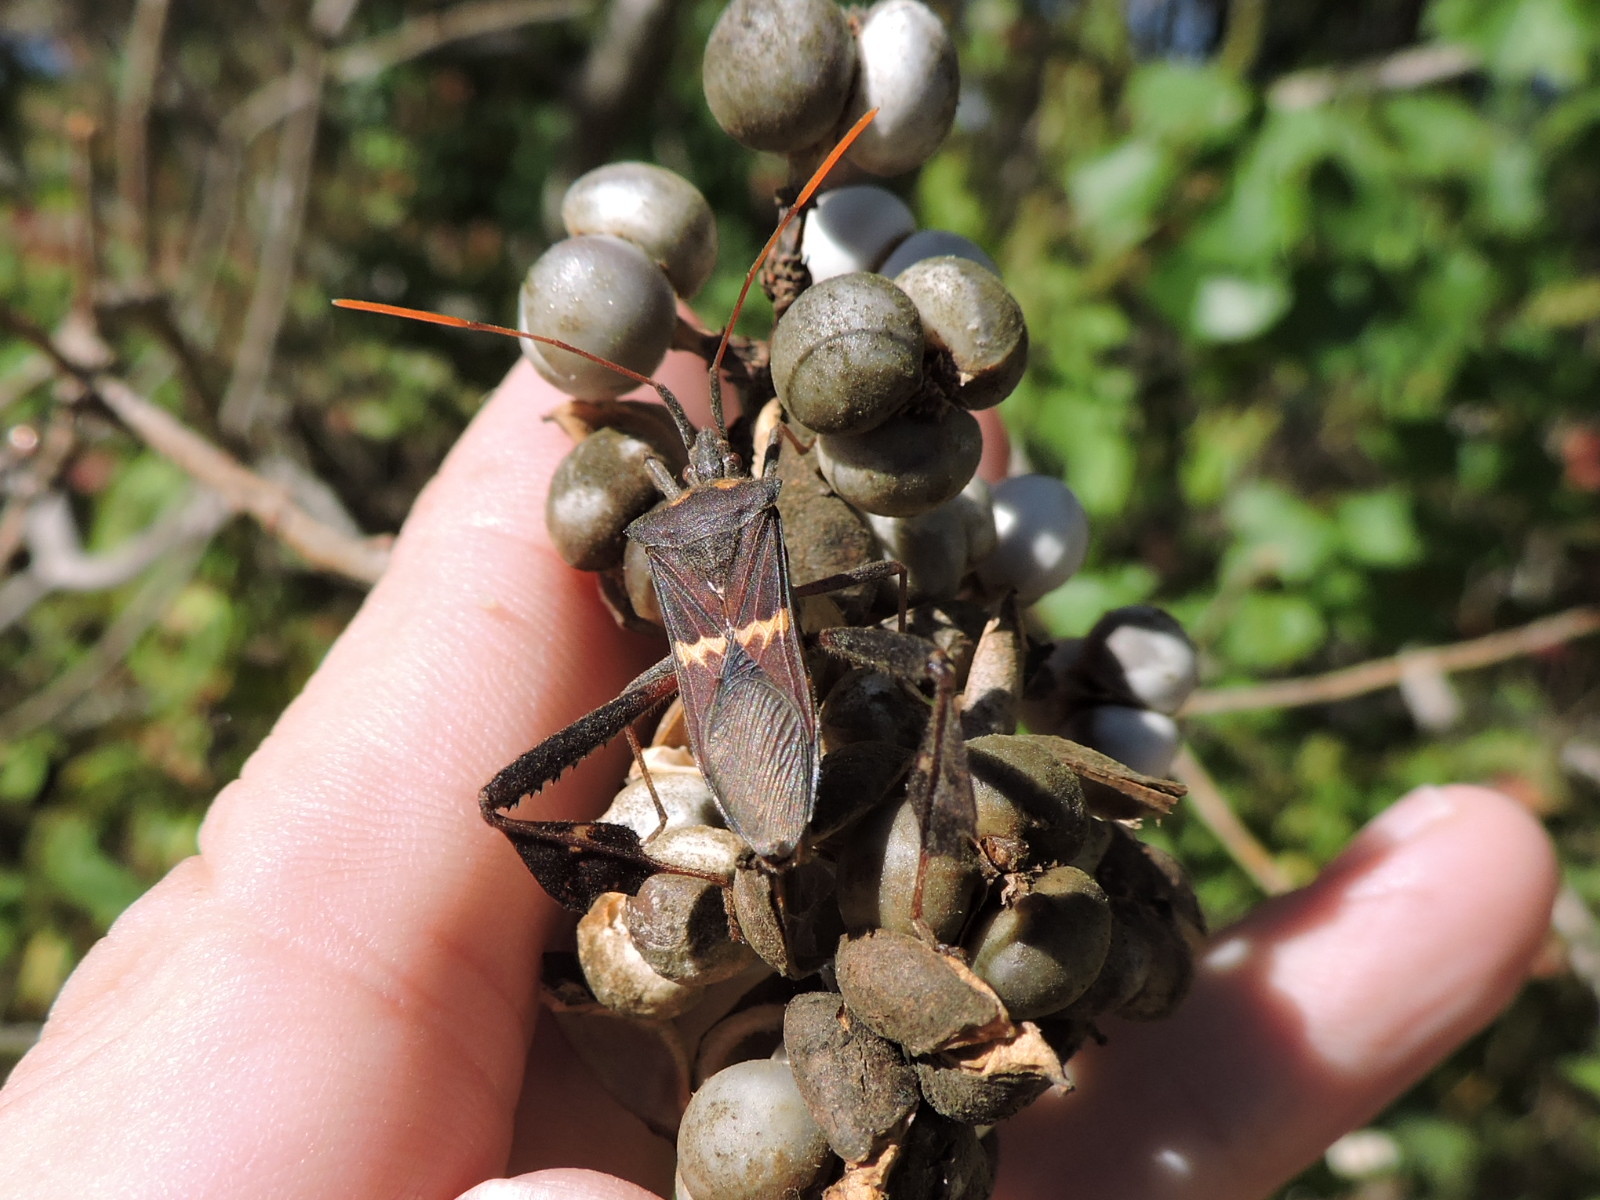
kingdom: Animalia
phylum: Arthropoda
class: Insecta
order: Hemiptera
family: Coreidae
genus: Leptoglossus
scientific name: Leptoglossus zonatus
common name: Large-legged bug
